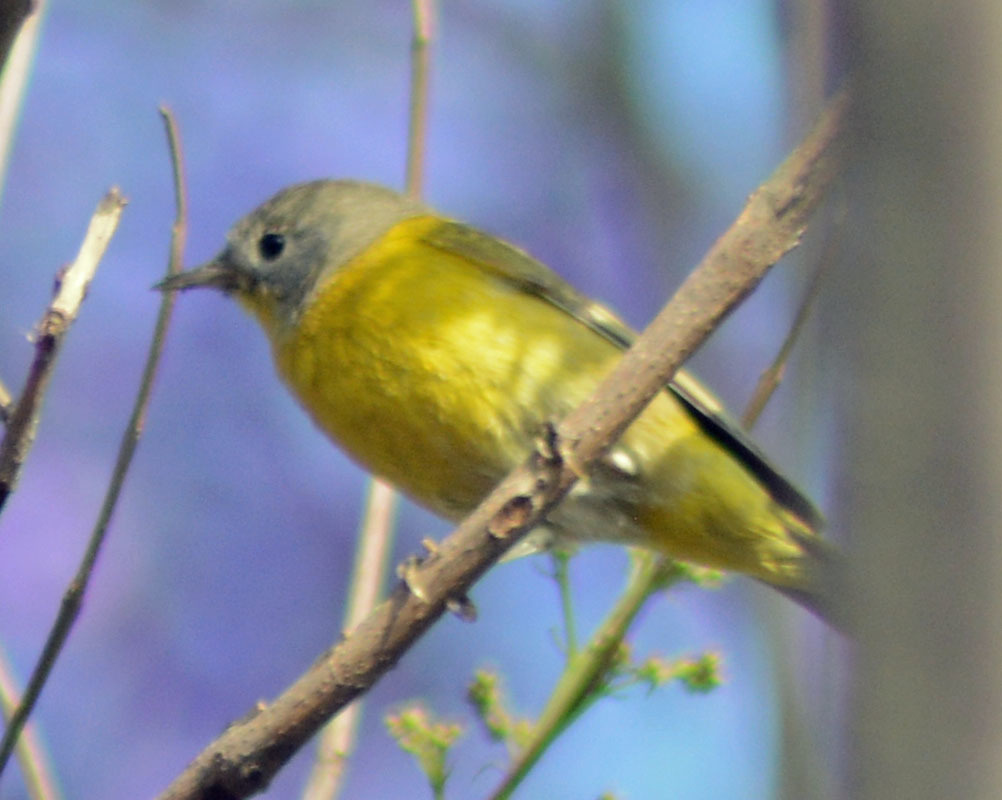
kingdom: Animalia
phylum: Chordata
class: Aves
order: Passeriformes
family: Parulidae
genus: Leiothlypis
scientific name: Leiothlypis ruficapilla
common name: Nashville warbler
